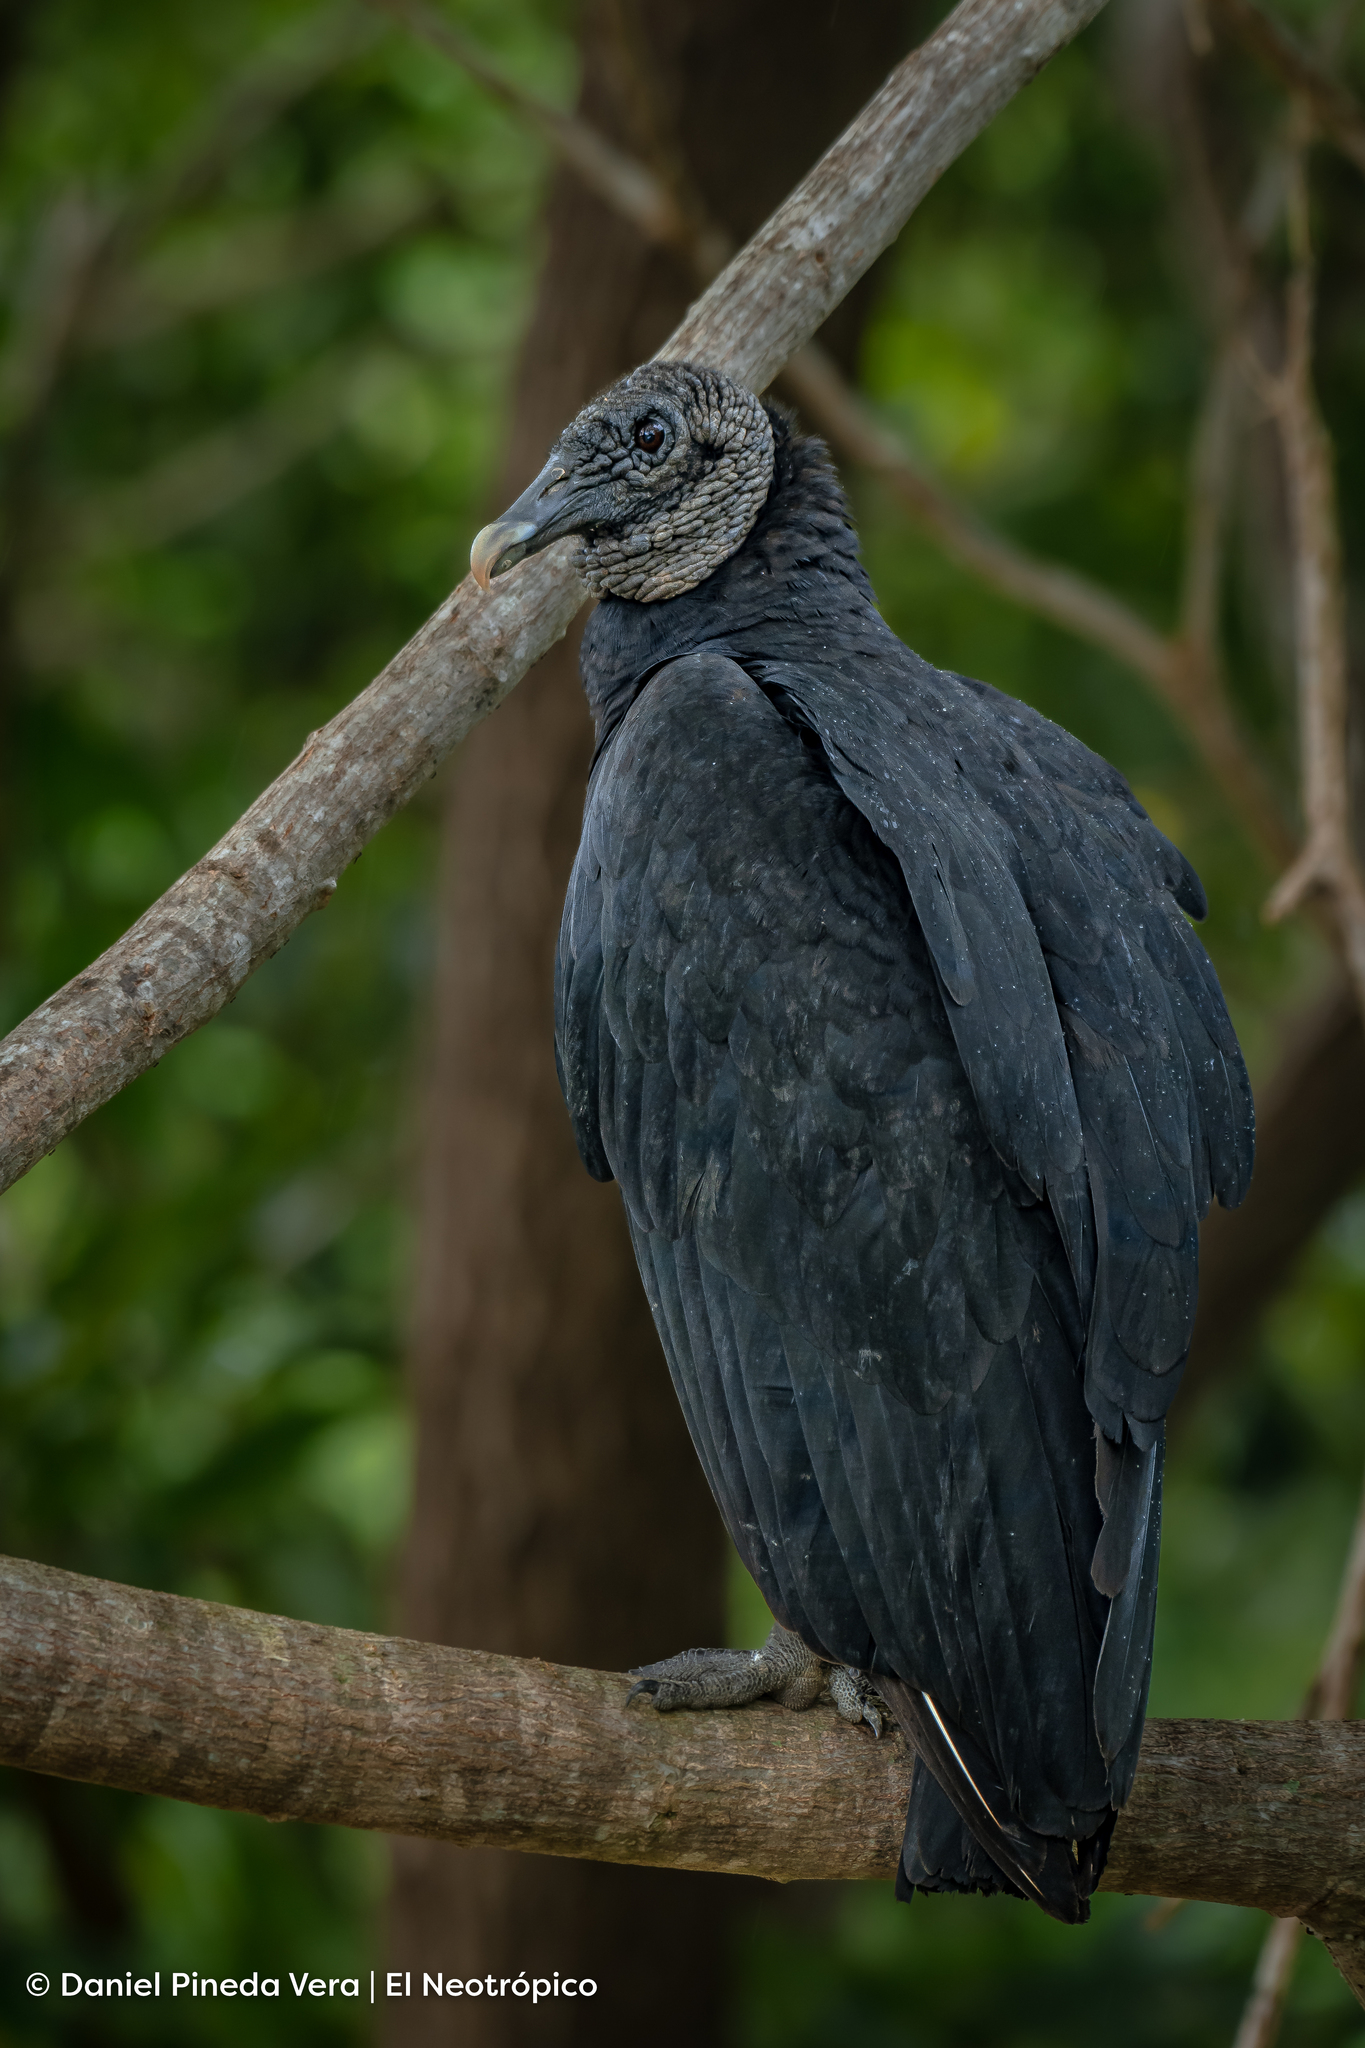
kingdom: Animalia
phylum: Chordata
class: Aves
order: Accipitriformes
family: Cathartidae
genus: Coragyps
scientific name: Coragyps atratus
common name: Black vulture
